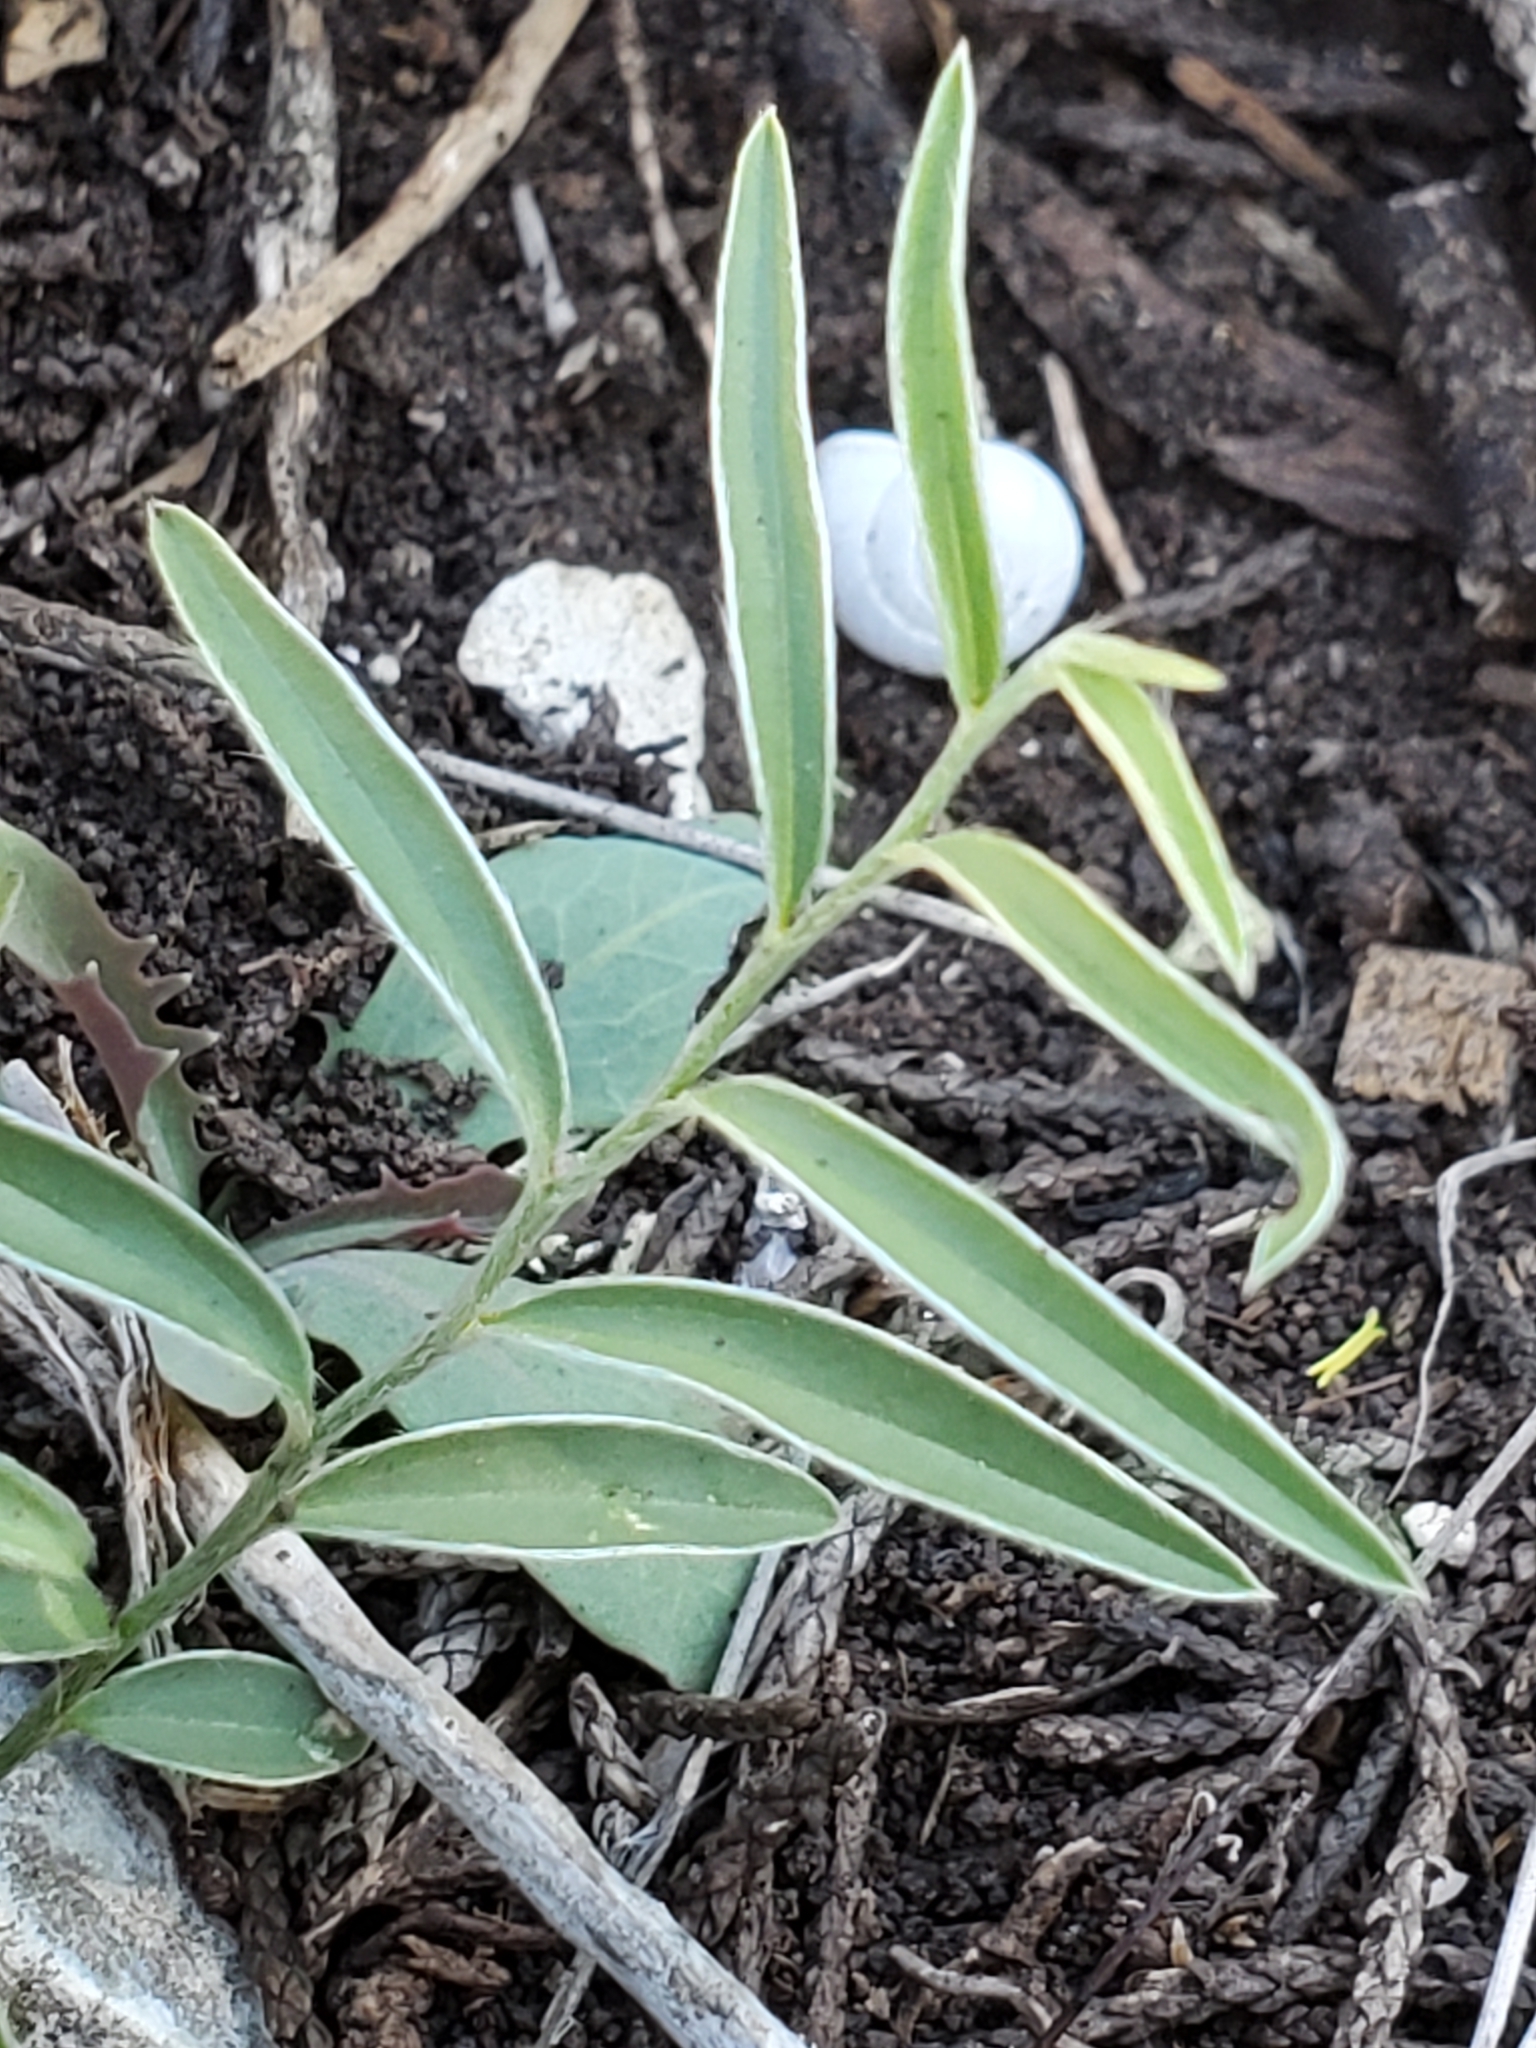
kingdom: Plantae
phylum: Tracheophyta
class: Magnoliopsida
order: Solanales
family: Convolvulaceae
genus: Evolvulus
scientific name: Evolvulus sericeus
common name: Blue dots
